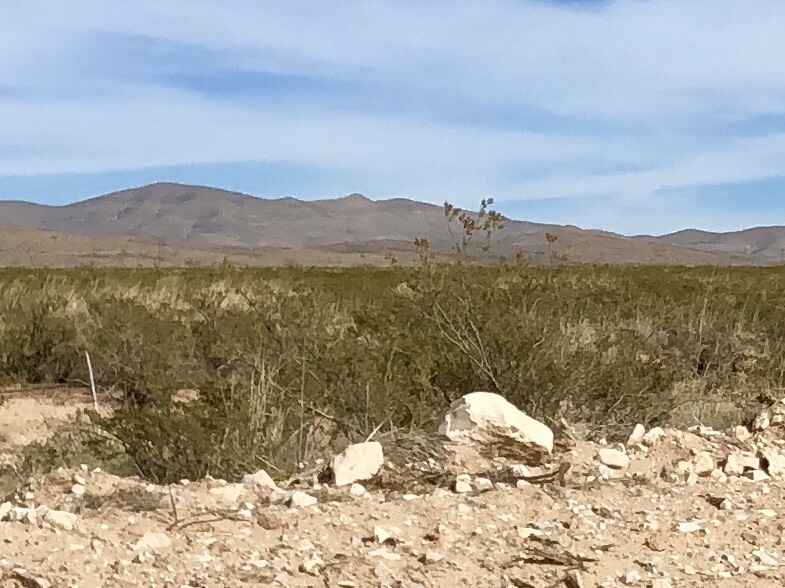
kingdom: Plantae
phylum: Tracheophyta
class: Magnoliopsida
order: Zygophyllales
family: Zygophyllaceae
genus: Larrea
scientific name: Larrea tridentata
